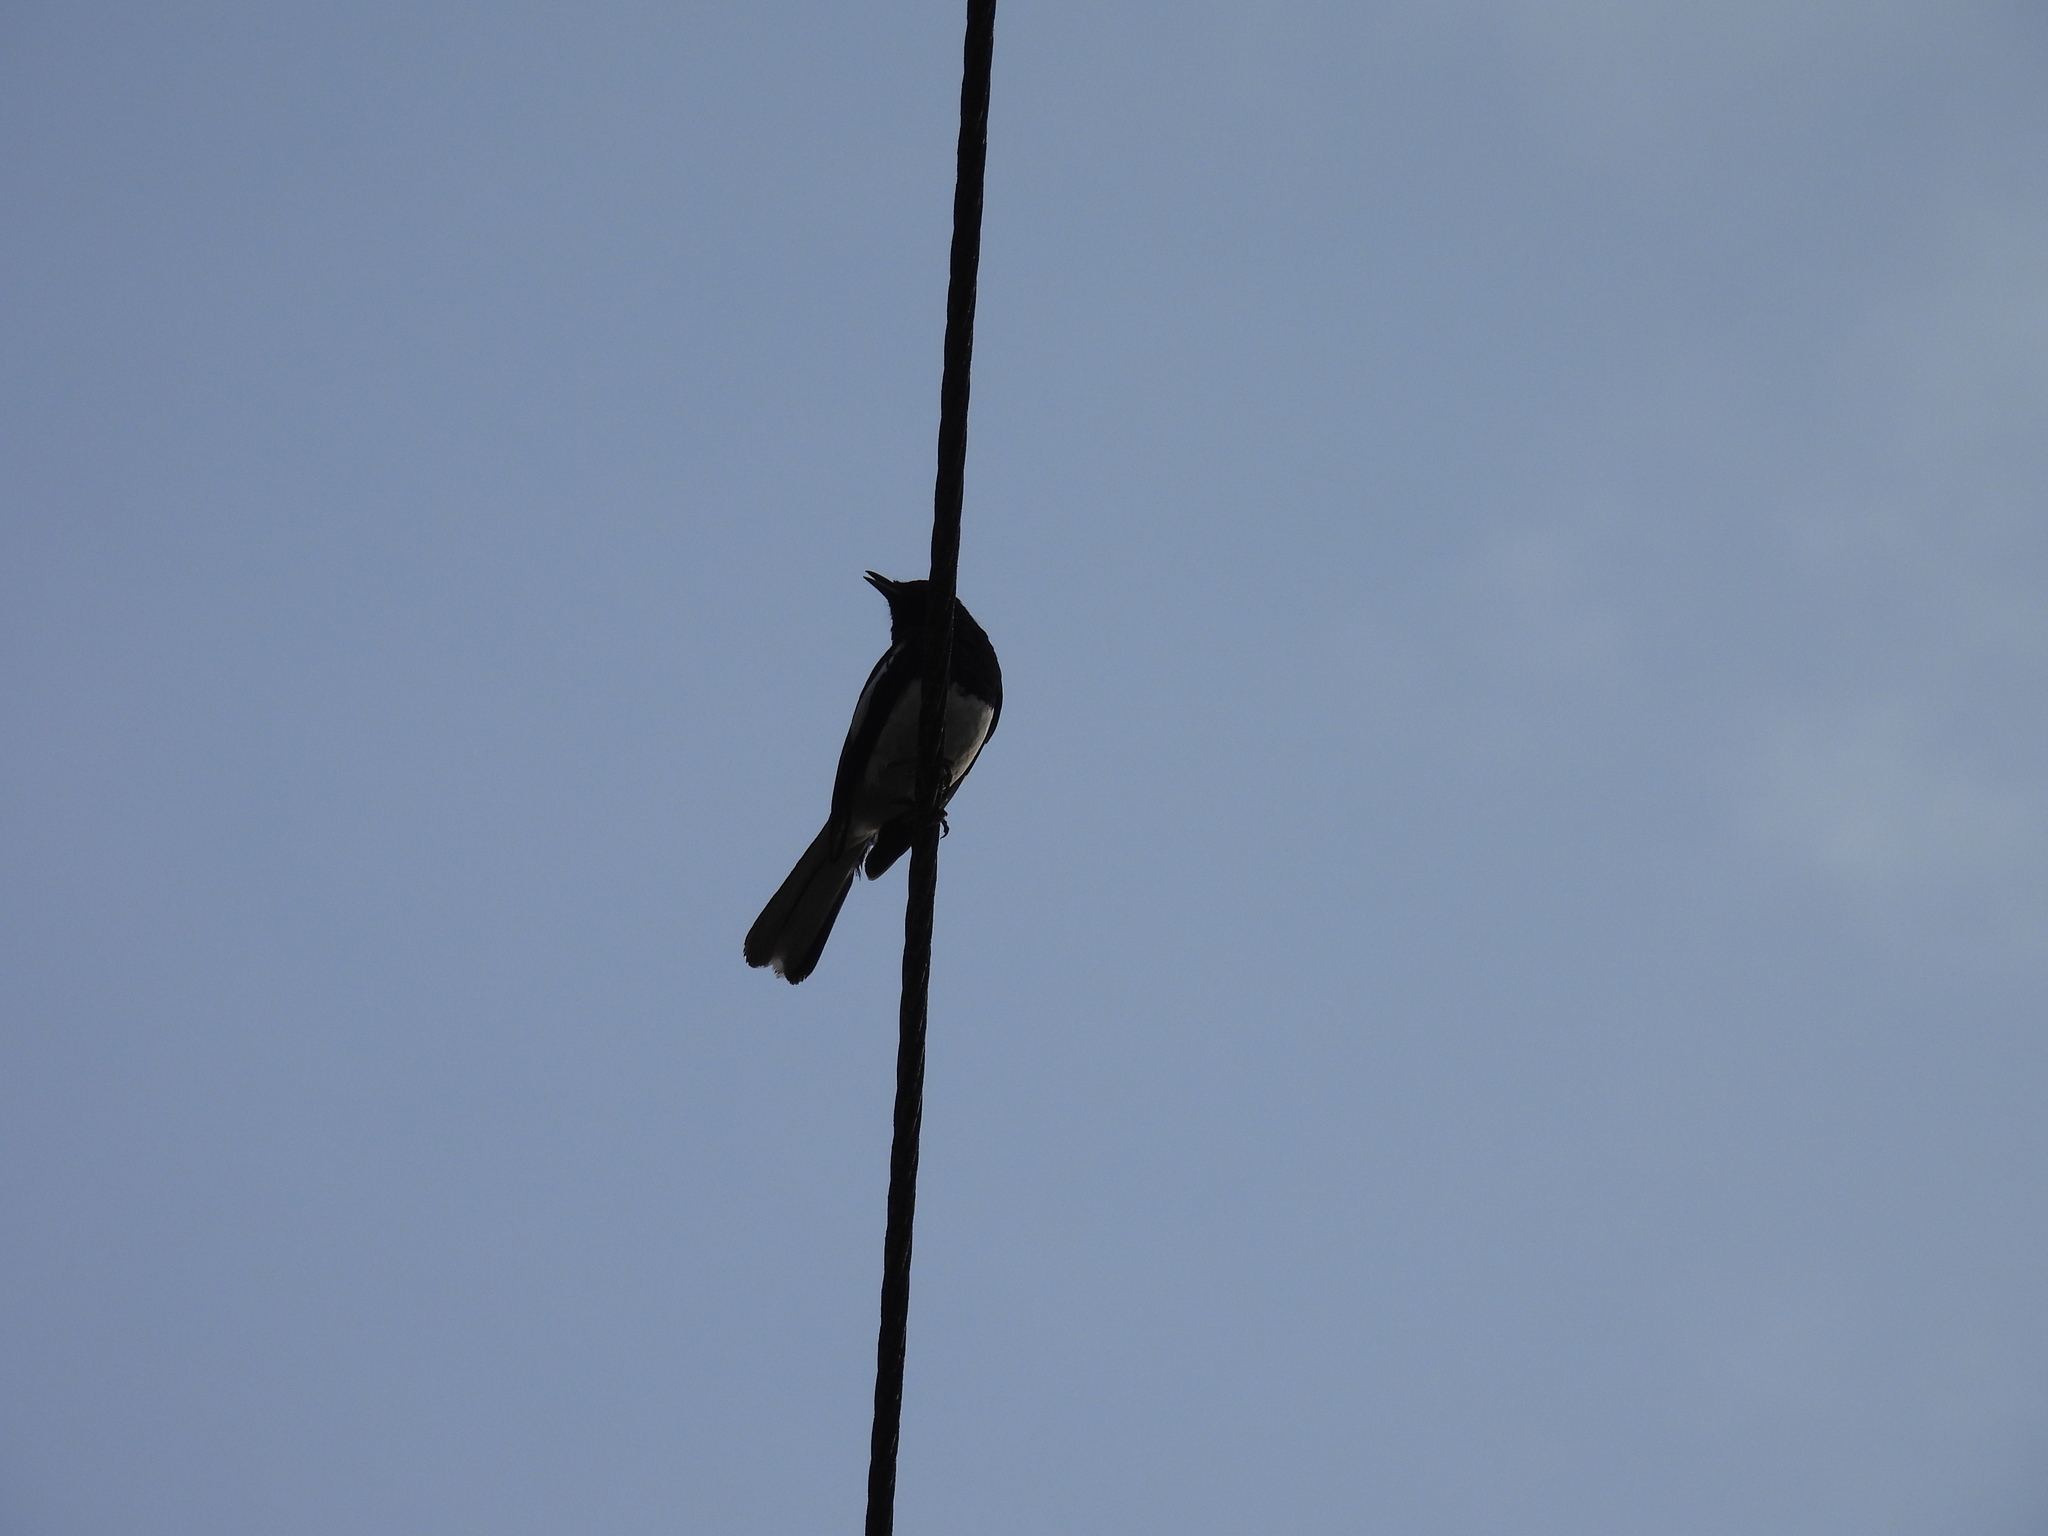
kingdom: Animalia
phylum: Chordata
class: Aves
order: Passeriformes
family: Muscicapidae
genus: Copsychus
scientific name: Copsychus saularis
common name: Oriental magpie-robin
